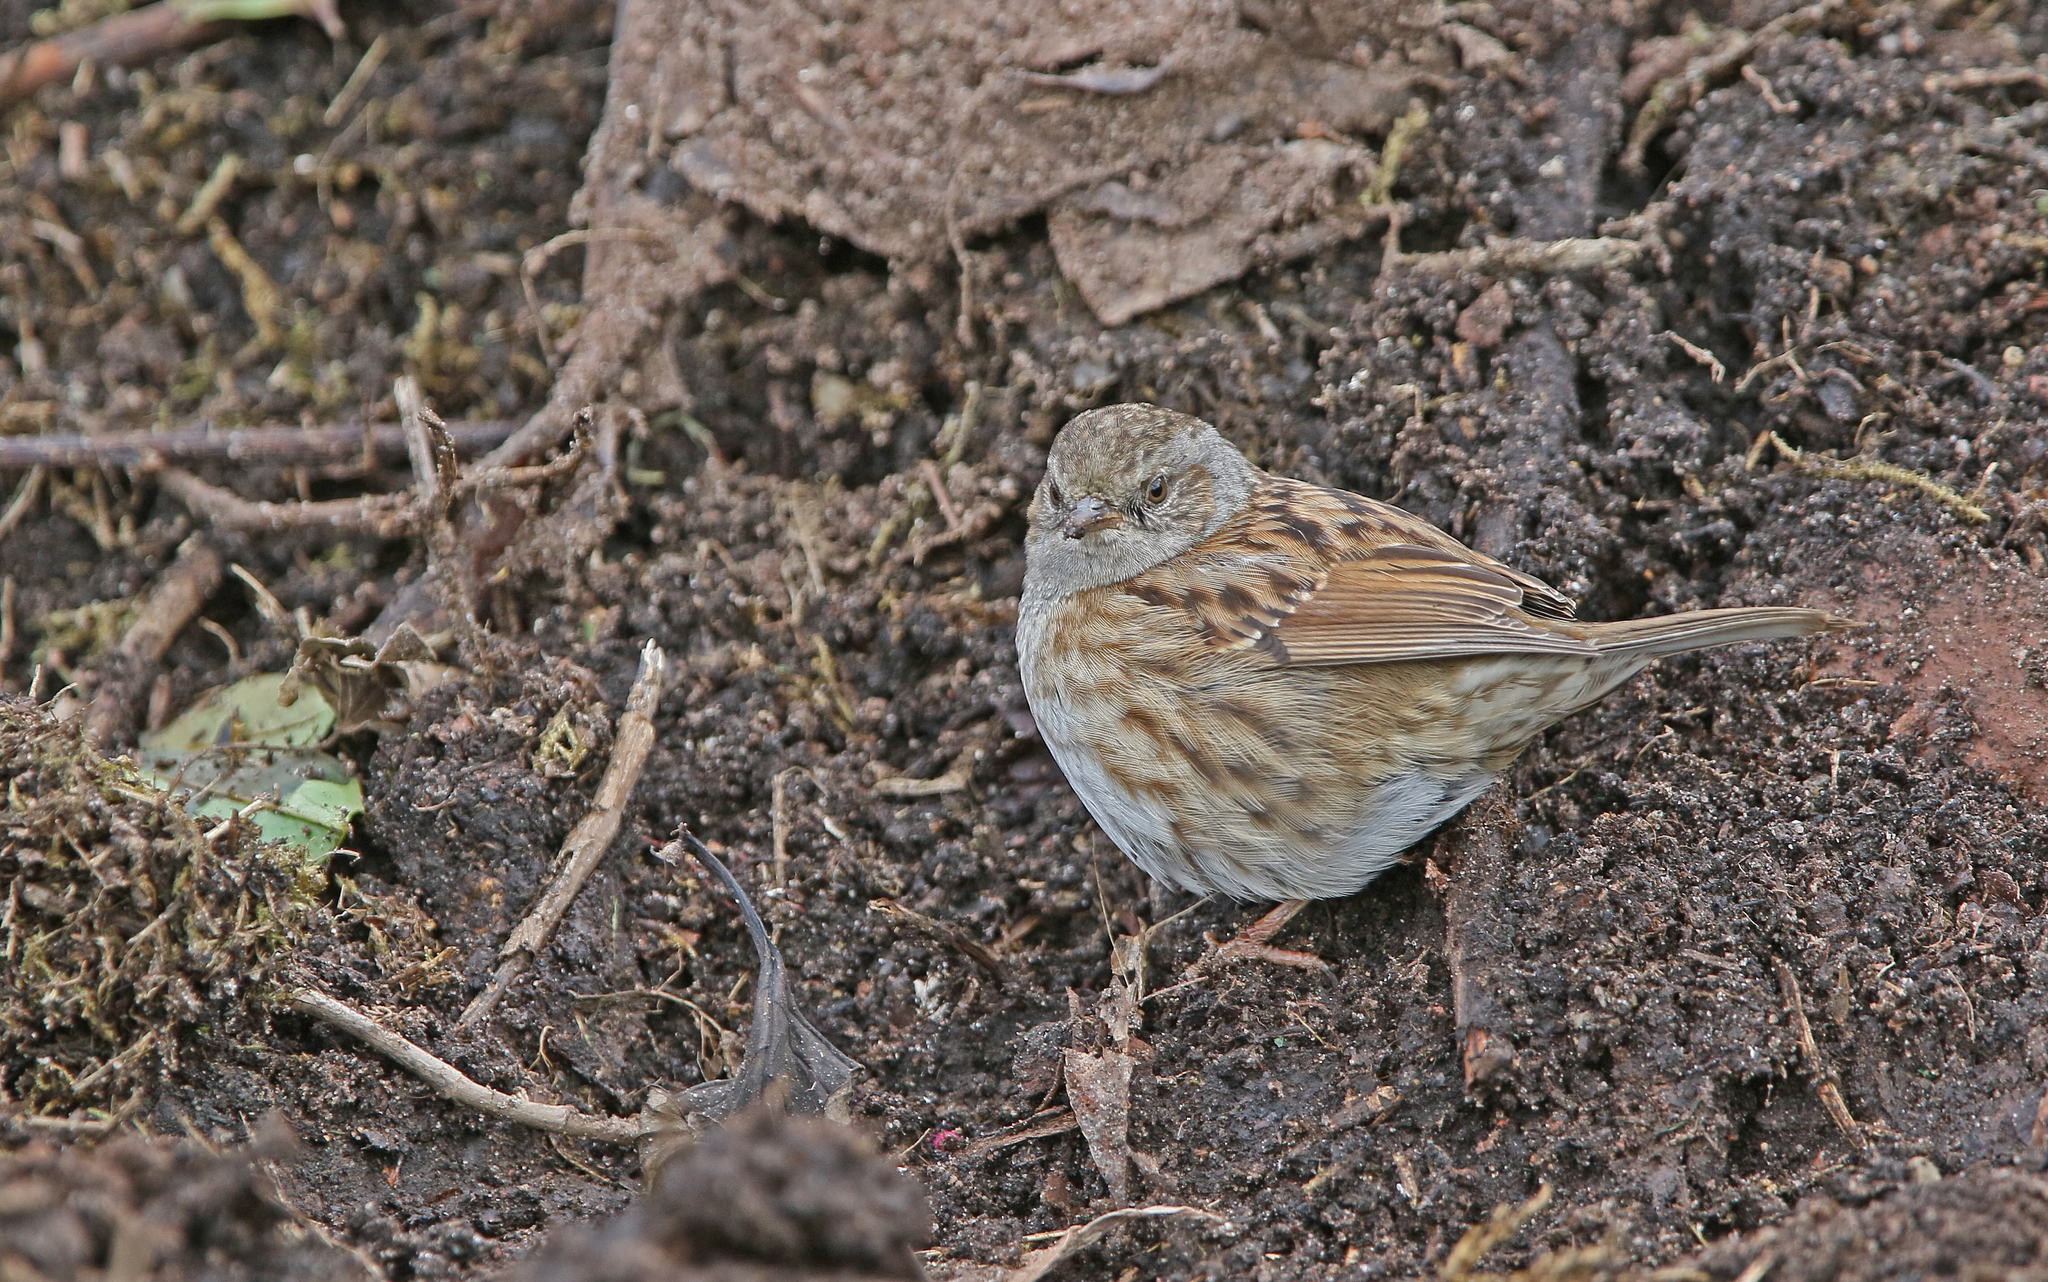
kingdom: Animalia
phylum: Chordata
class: Aves
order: Passeriformes
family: Prunellidae
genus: Prunella
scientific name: Prunella modularis
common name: Dunnock
